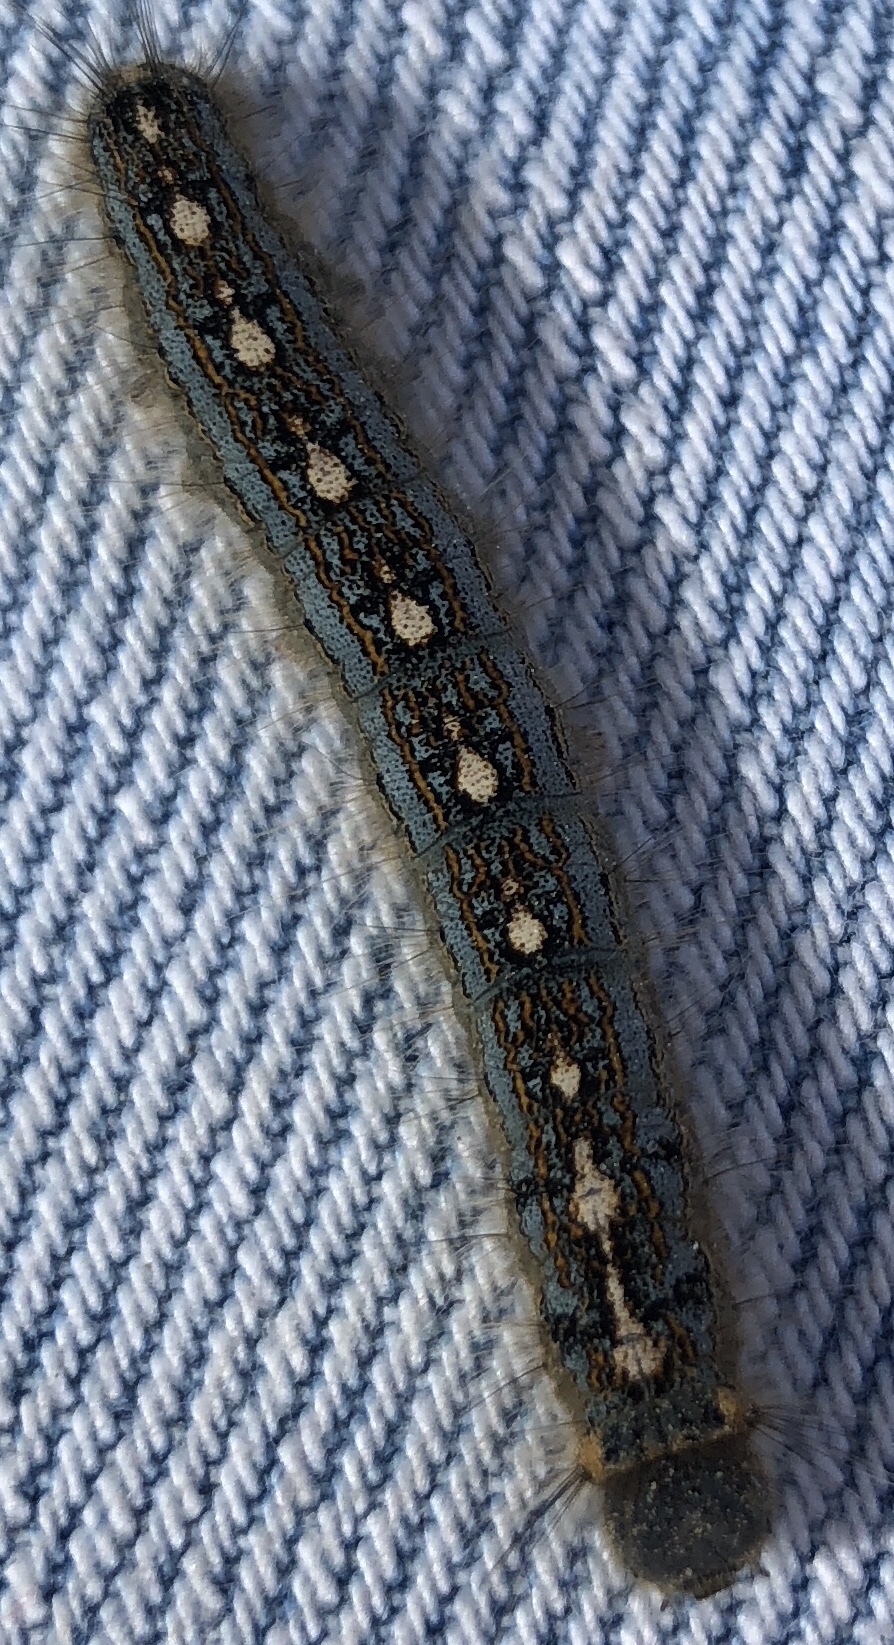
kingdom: Animalia
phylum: Arthropoda
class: Insecta
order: Lepidoptera
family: Lasiocampidae
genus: Malacosoma
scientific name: Malacosoma disstria
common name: Forest tent caterpillar
